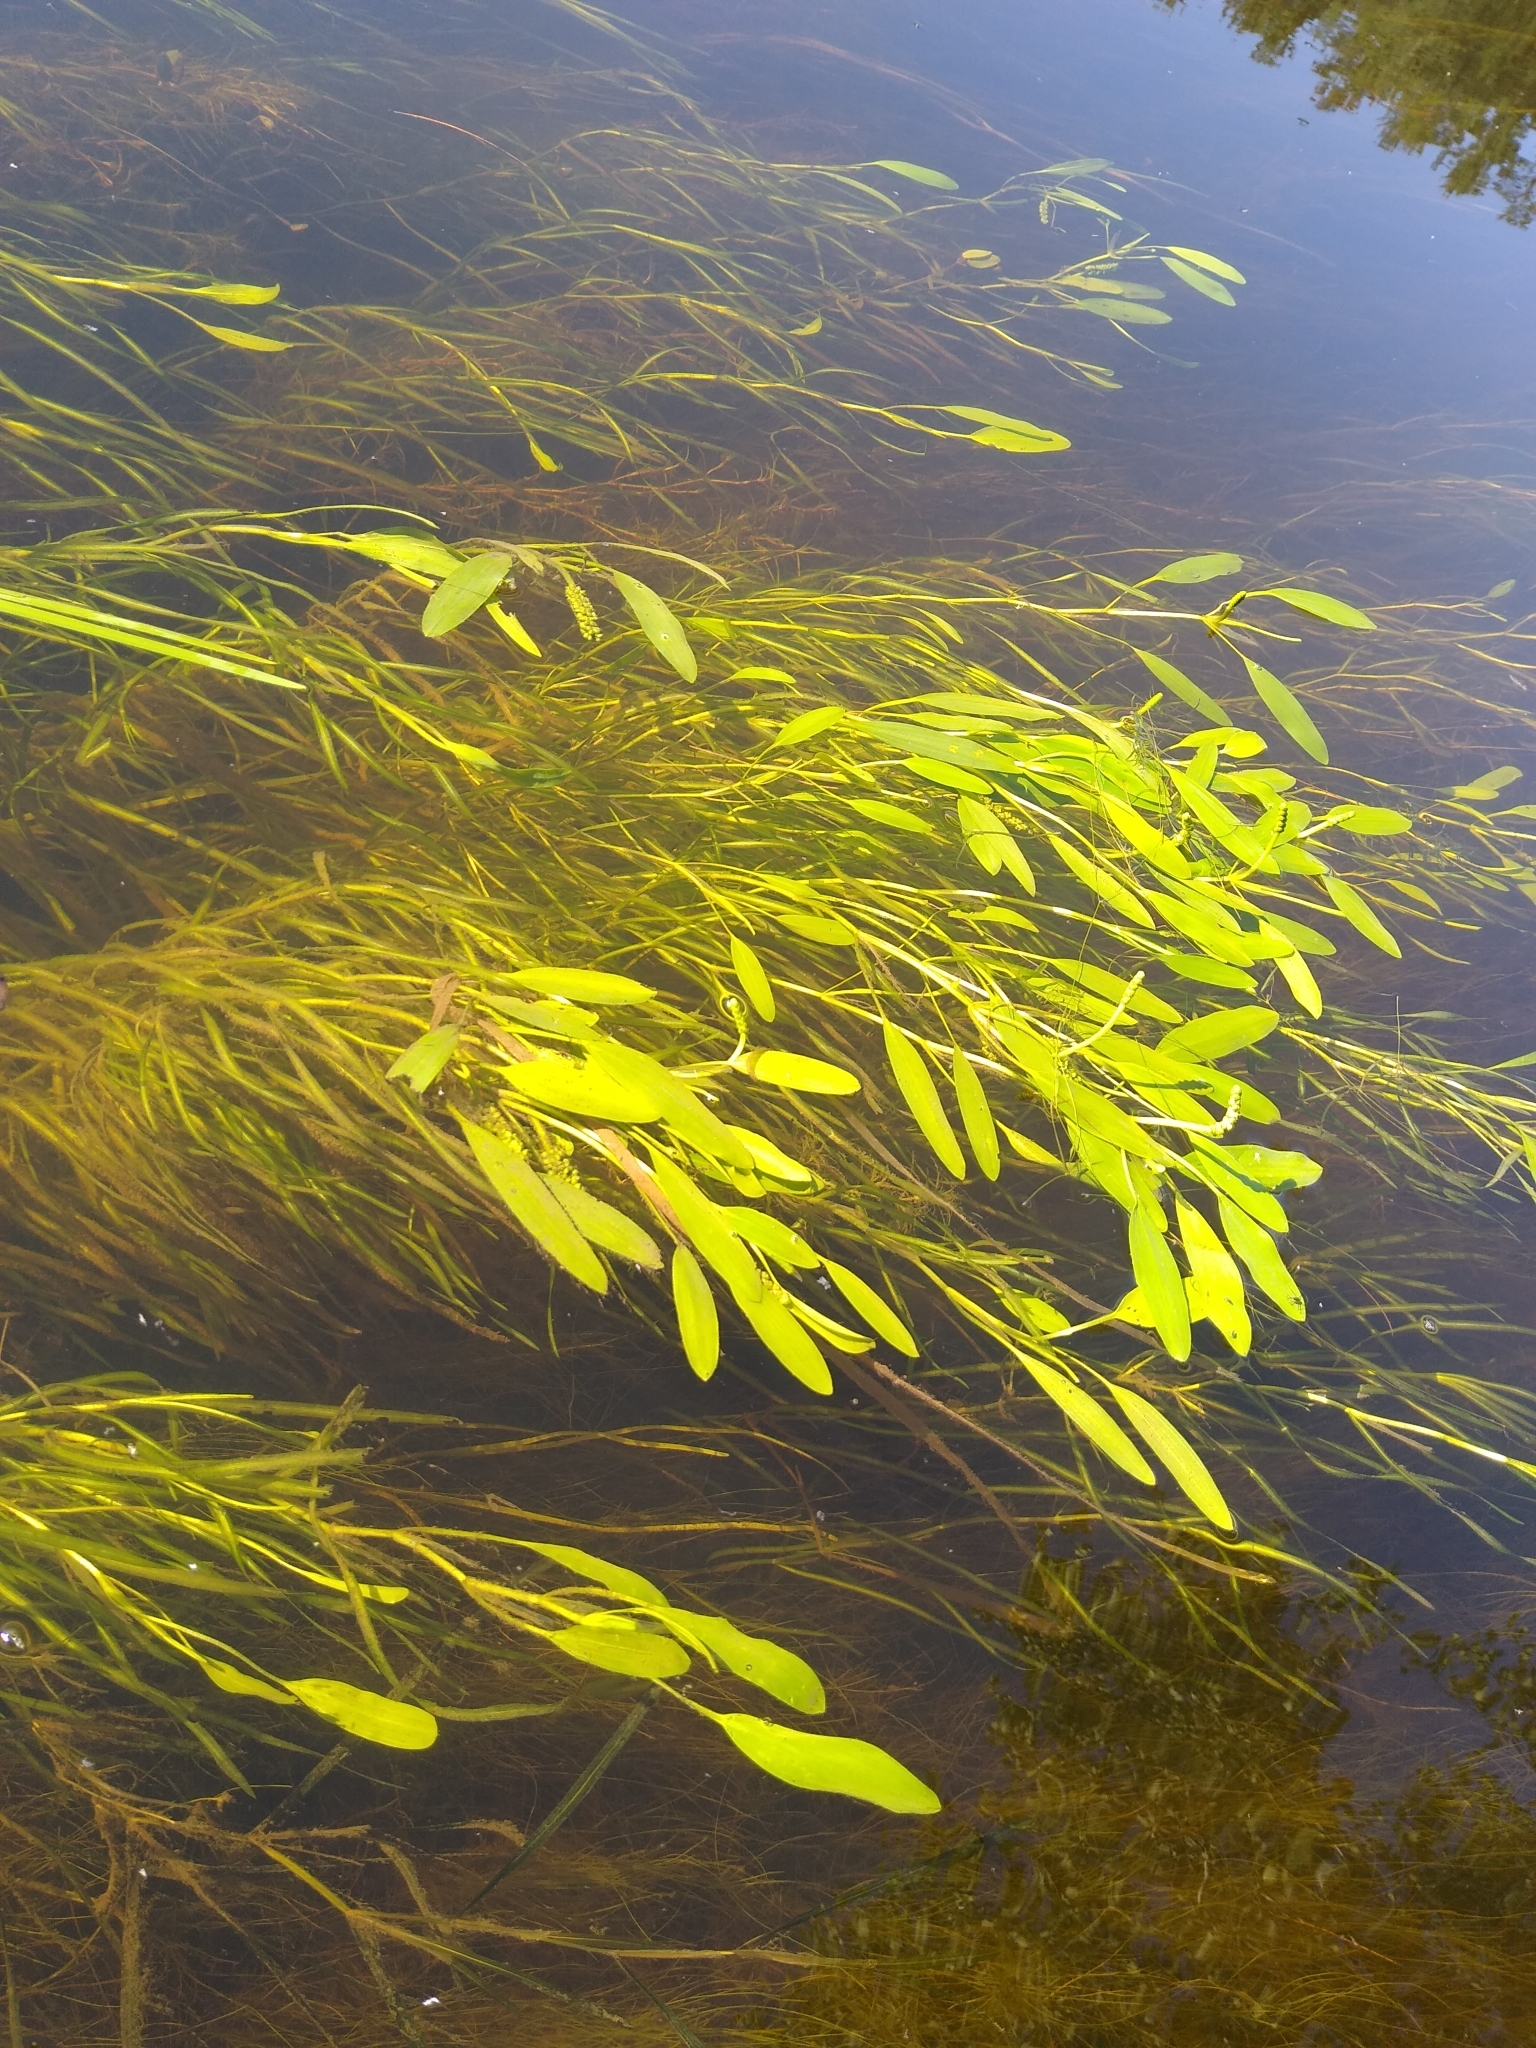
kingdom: Plantae
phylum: Tracheophyta
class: Liliopsida
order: Alismatales
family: Potamogetonaceae
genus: Potamogeton
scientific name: Potamogeton epihydrus
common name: American pondweed
